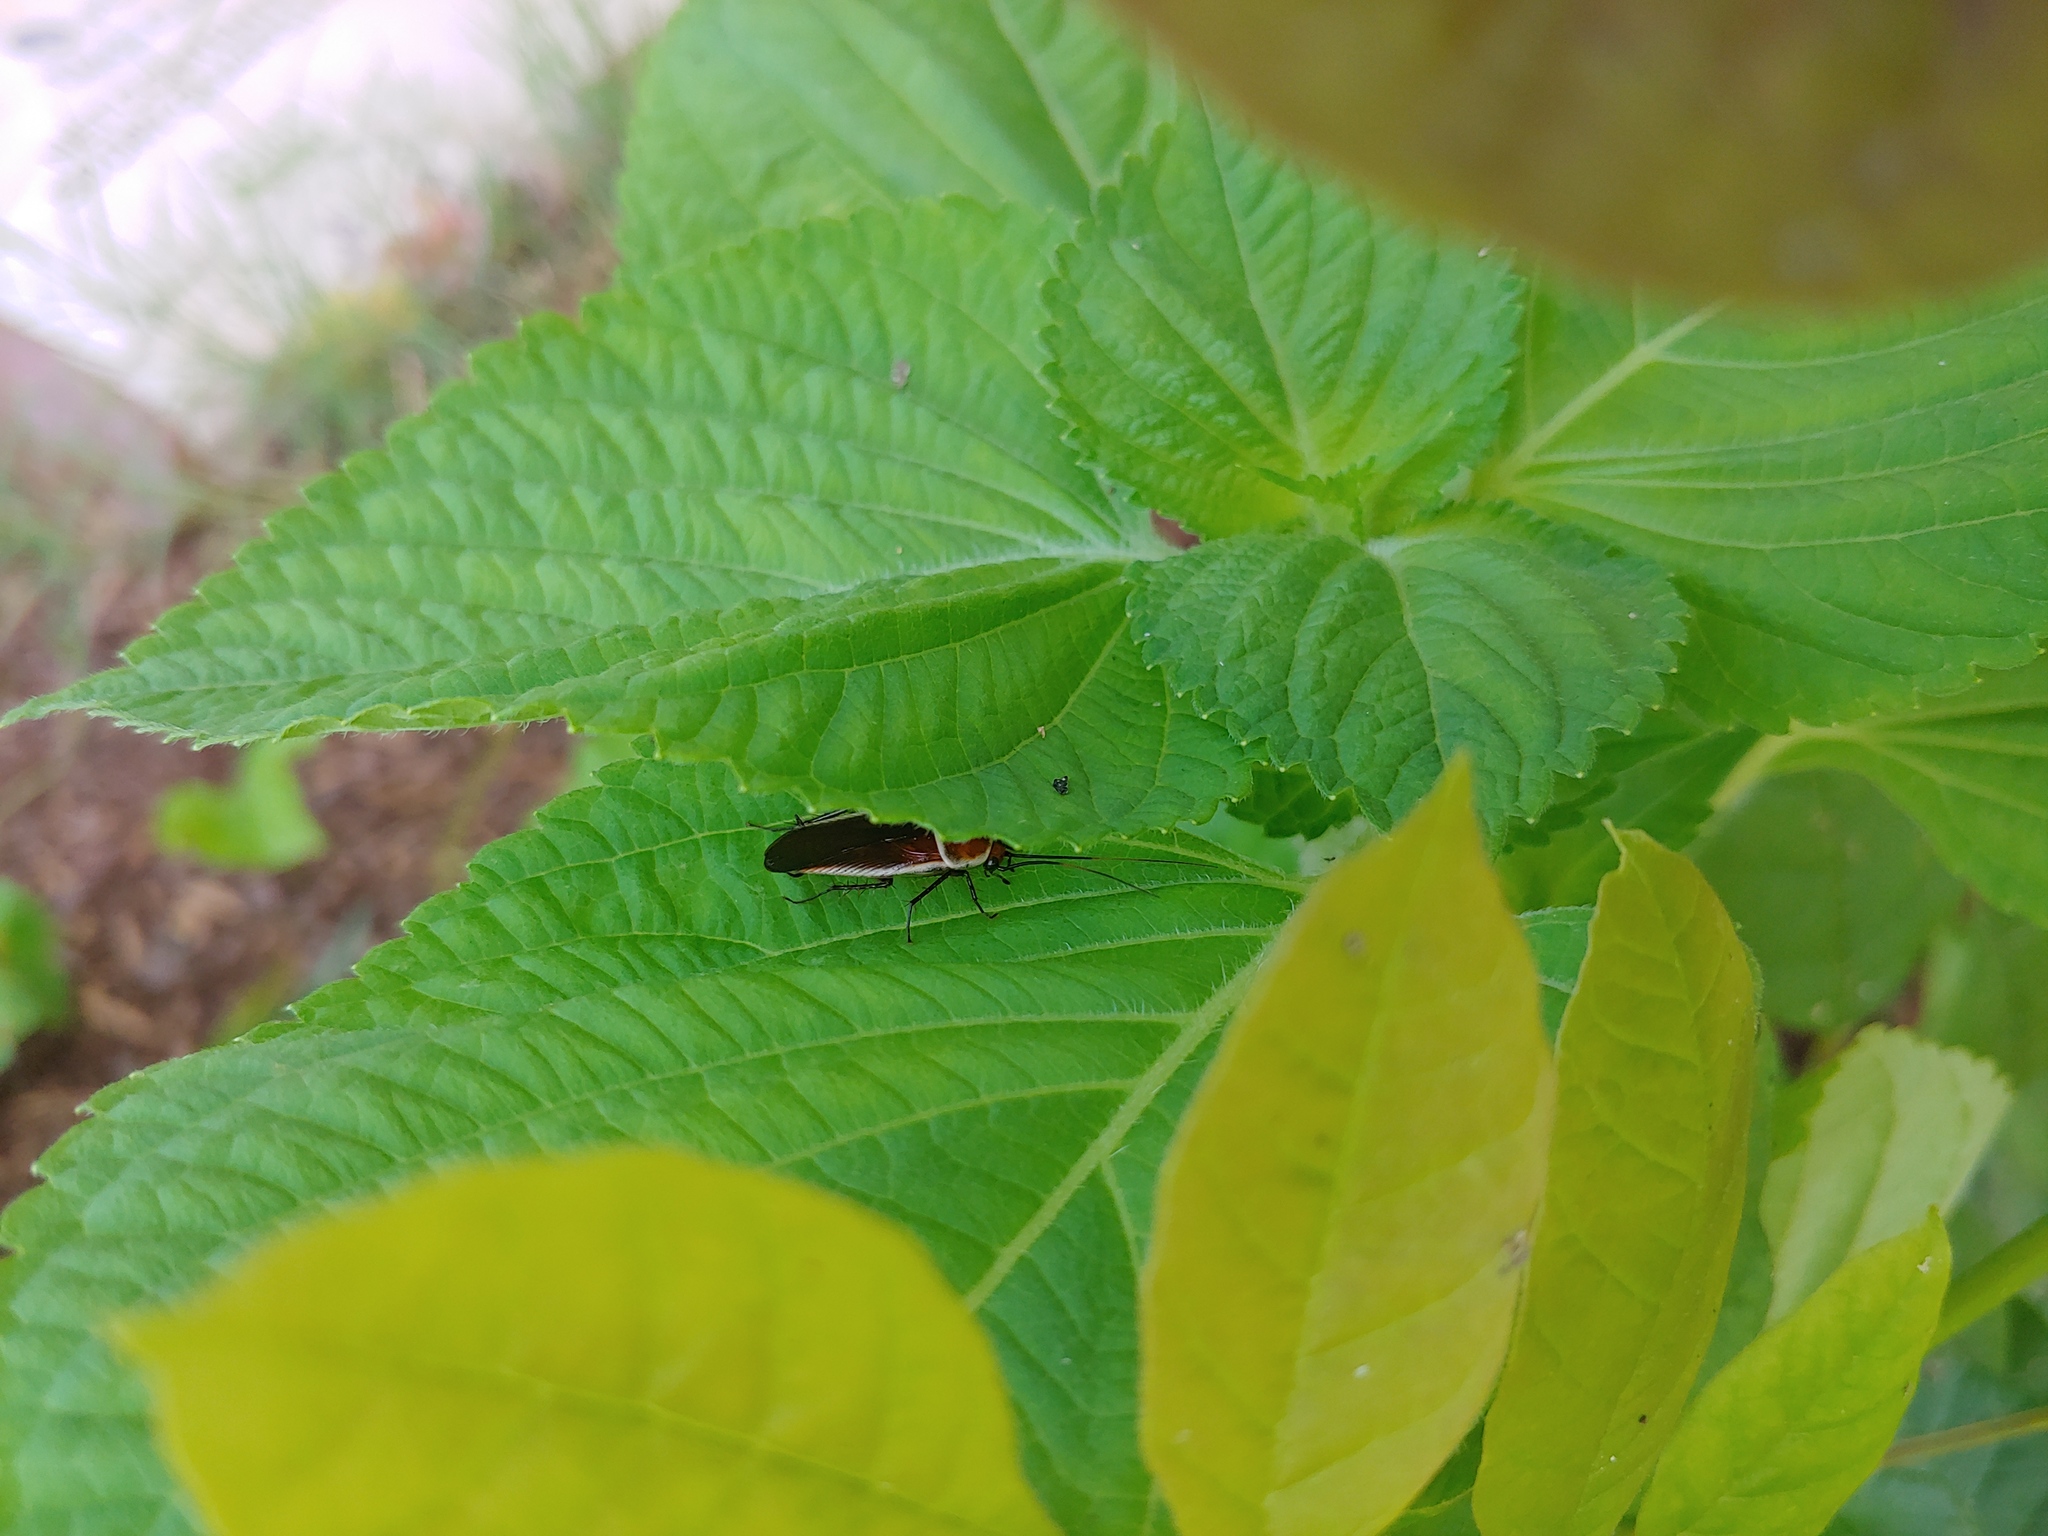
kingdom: Animalia
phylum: Arthropoda
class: Insecta
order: Blattodea
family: Ectobiidae
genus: Pseudomops
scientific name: Pseudomops septentrionalis
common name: Pale-bordered field cockroach
